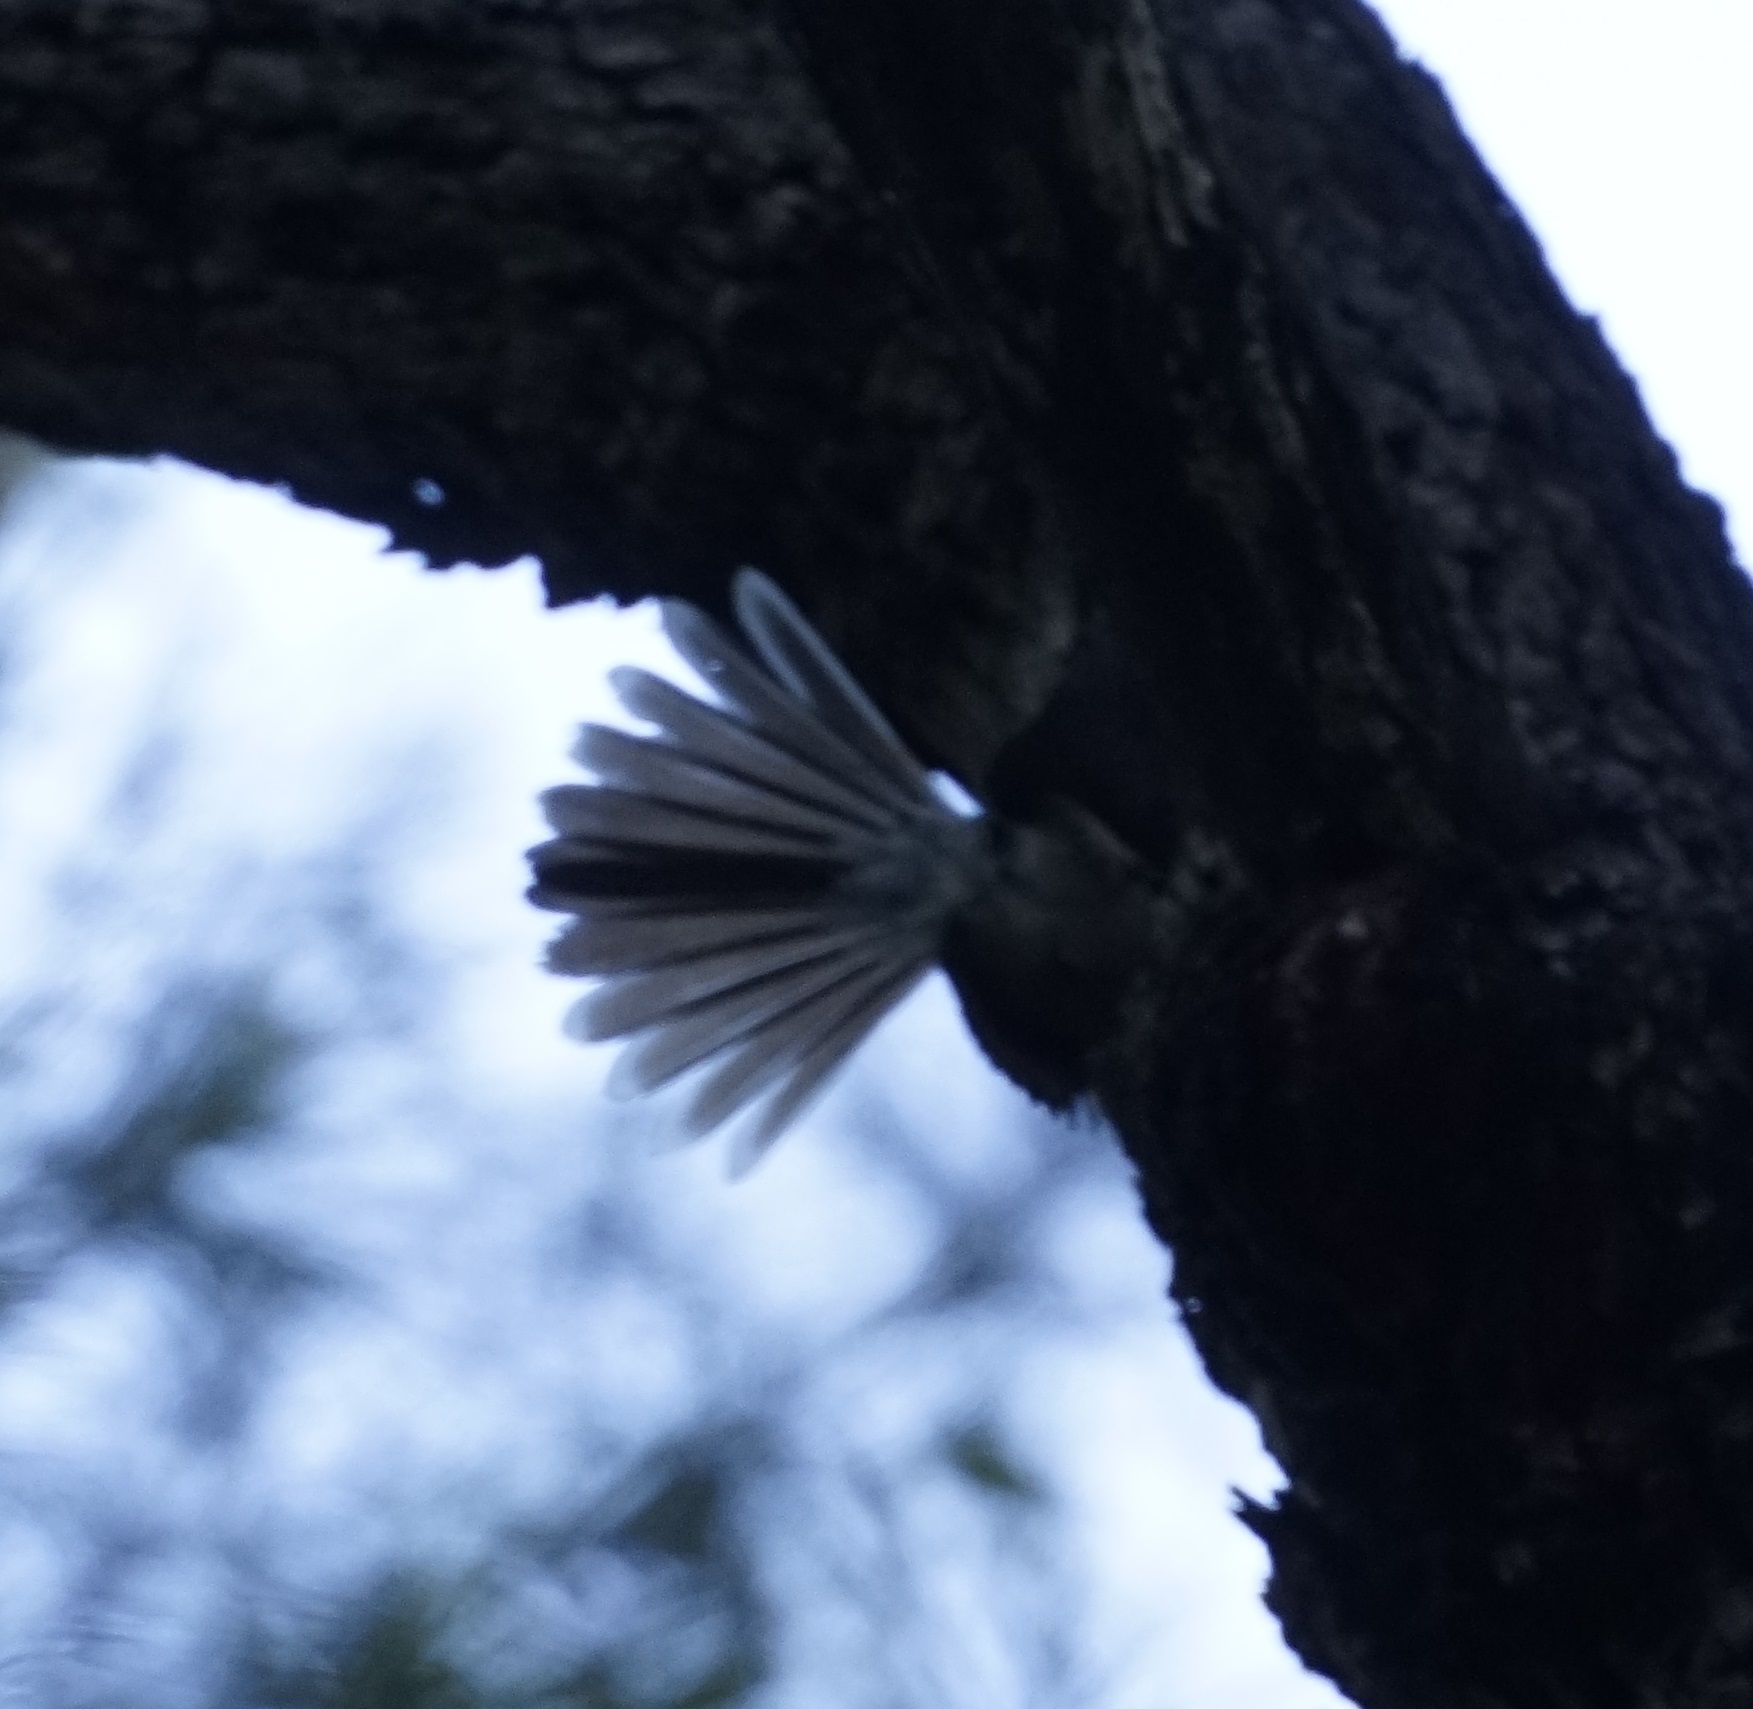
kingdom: Animalia
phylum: Chordata
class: Aves
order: Passeriformes
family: Rhipiduridae
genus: Rhipidura
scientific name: Rhipidura albiscapa
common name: Grey fantail
